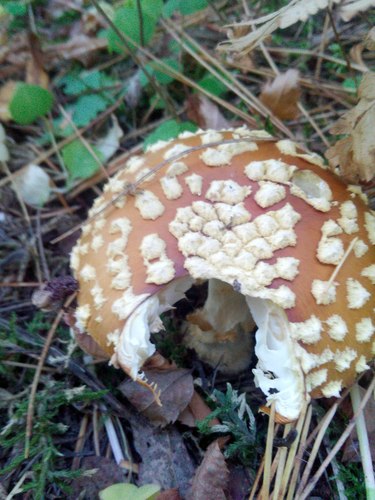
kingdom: Fungi
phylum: Basidiomycota
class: Agaricomycetes
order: Agaricales
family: Amanitaceae
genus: Amanita
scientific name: Amanita muscaria
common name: Fly agaric
